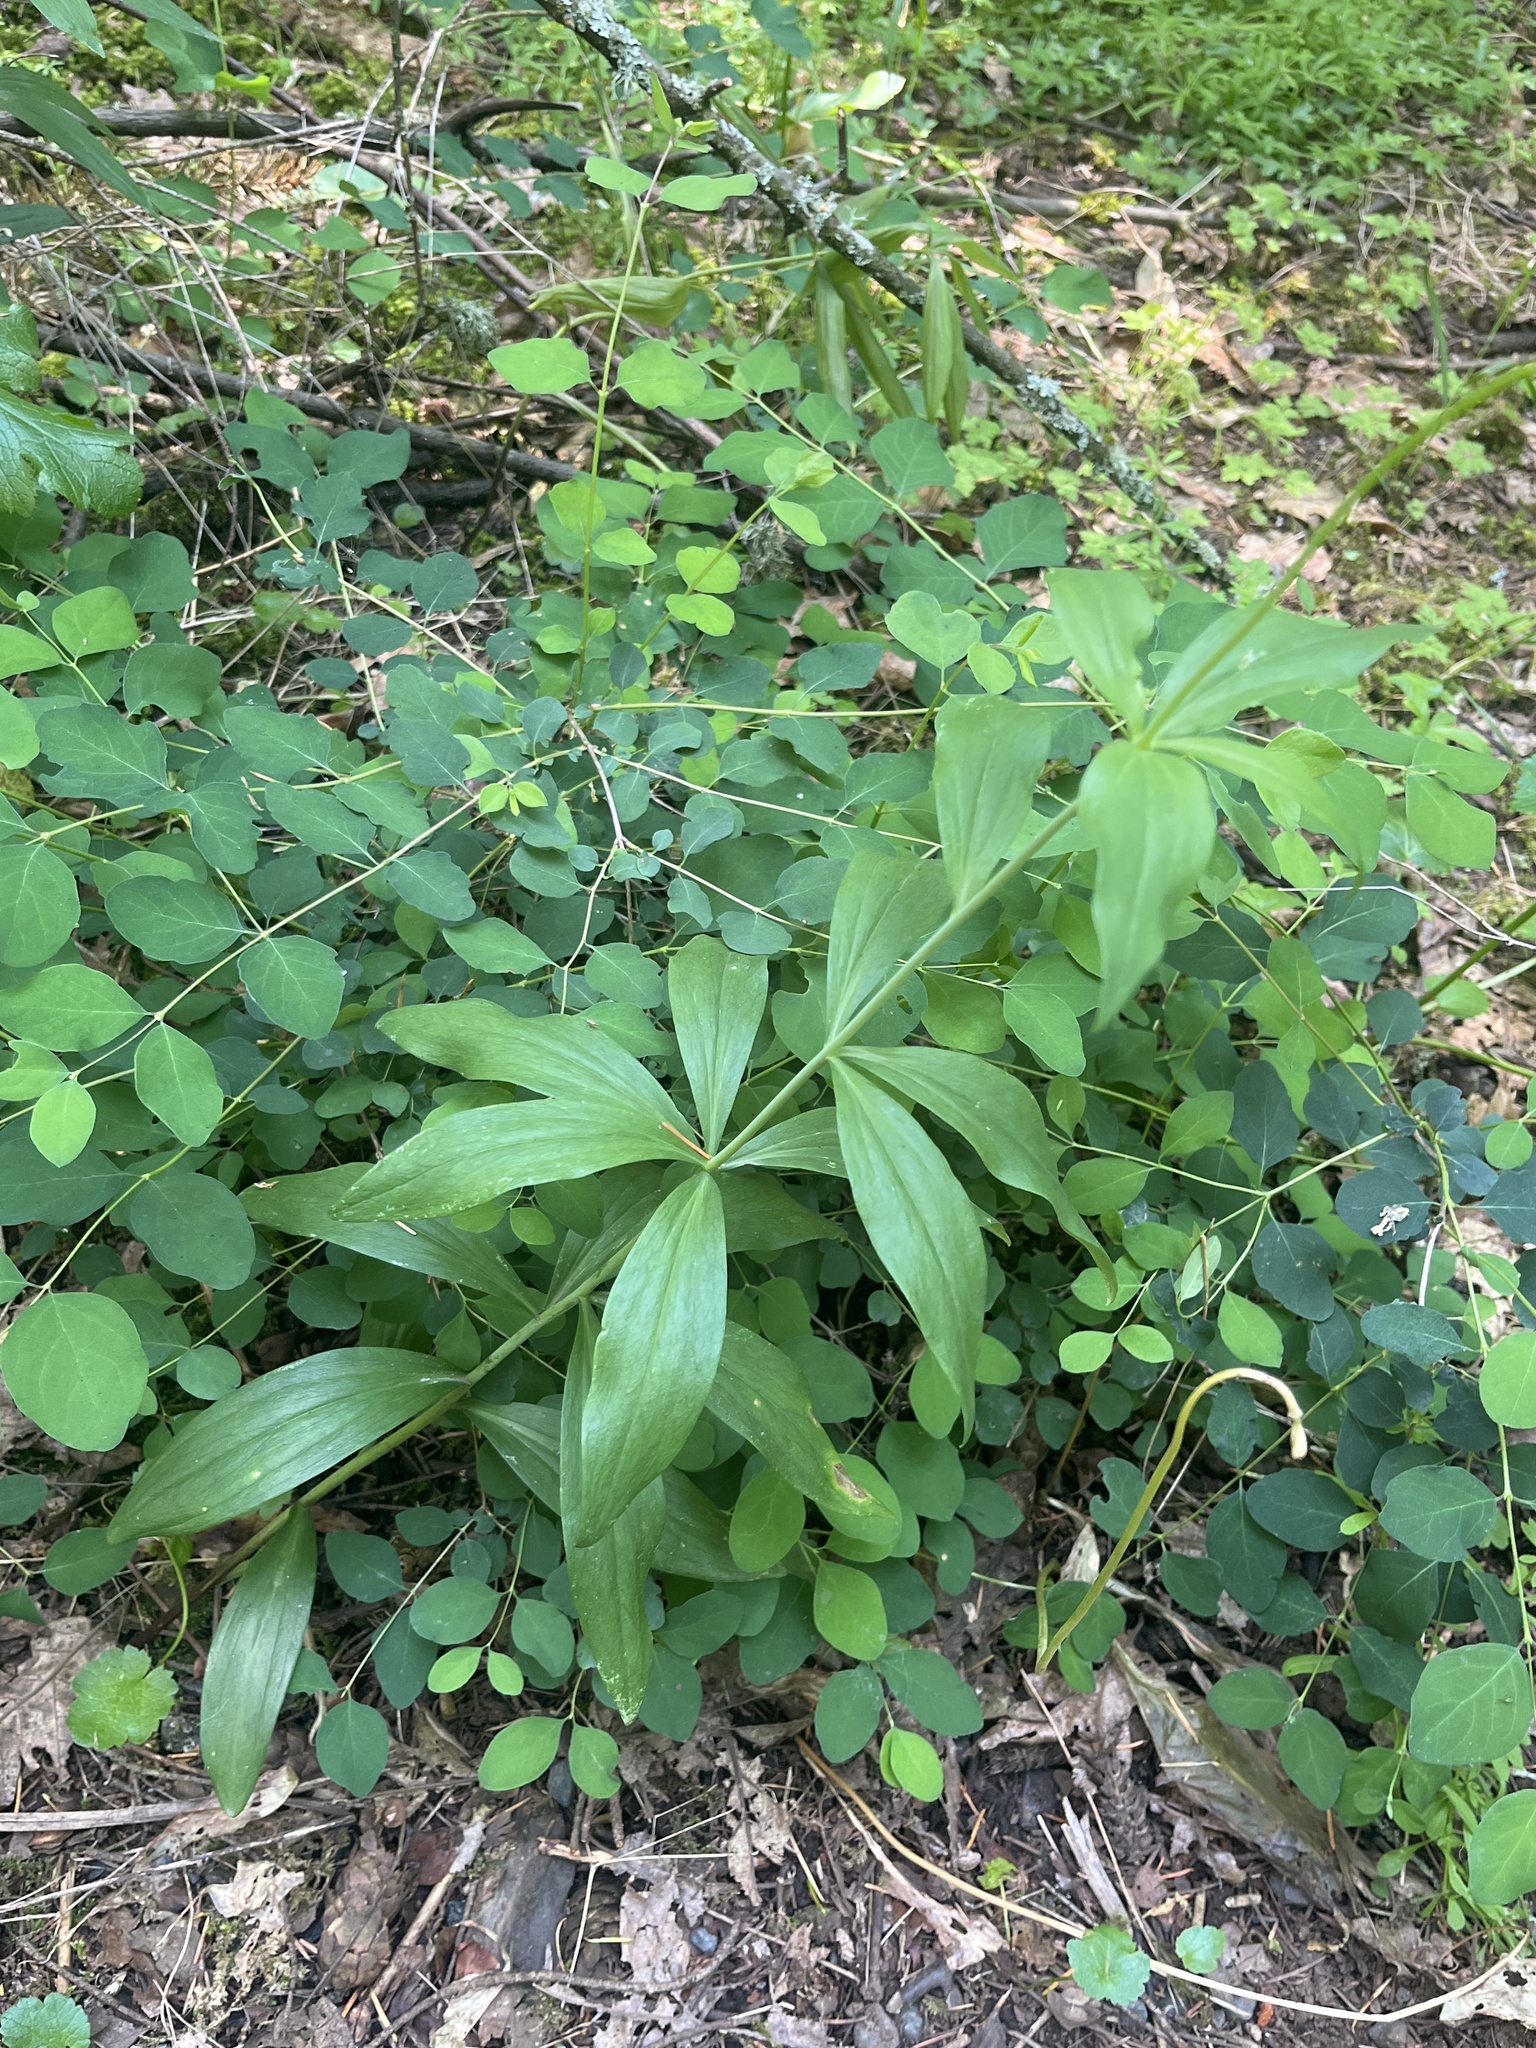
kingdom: Plantae
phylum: Tracheophyta
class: Liliopsida
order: Liliales
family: Liliaceae
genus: Lilium
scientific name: Lilium columbianum
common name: Columbia lily
